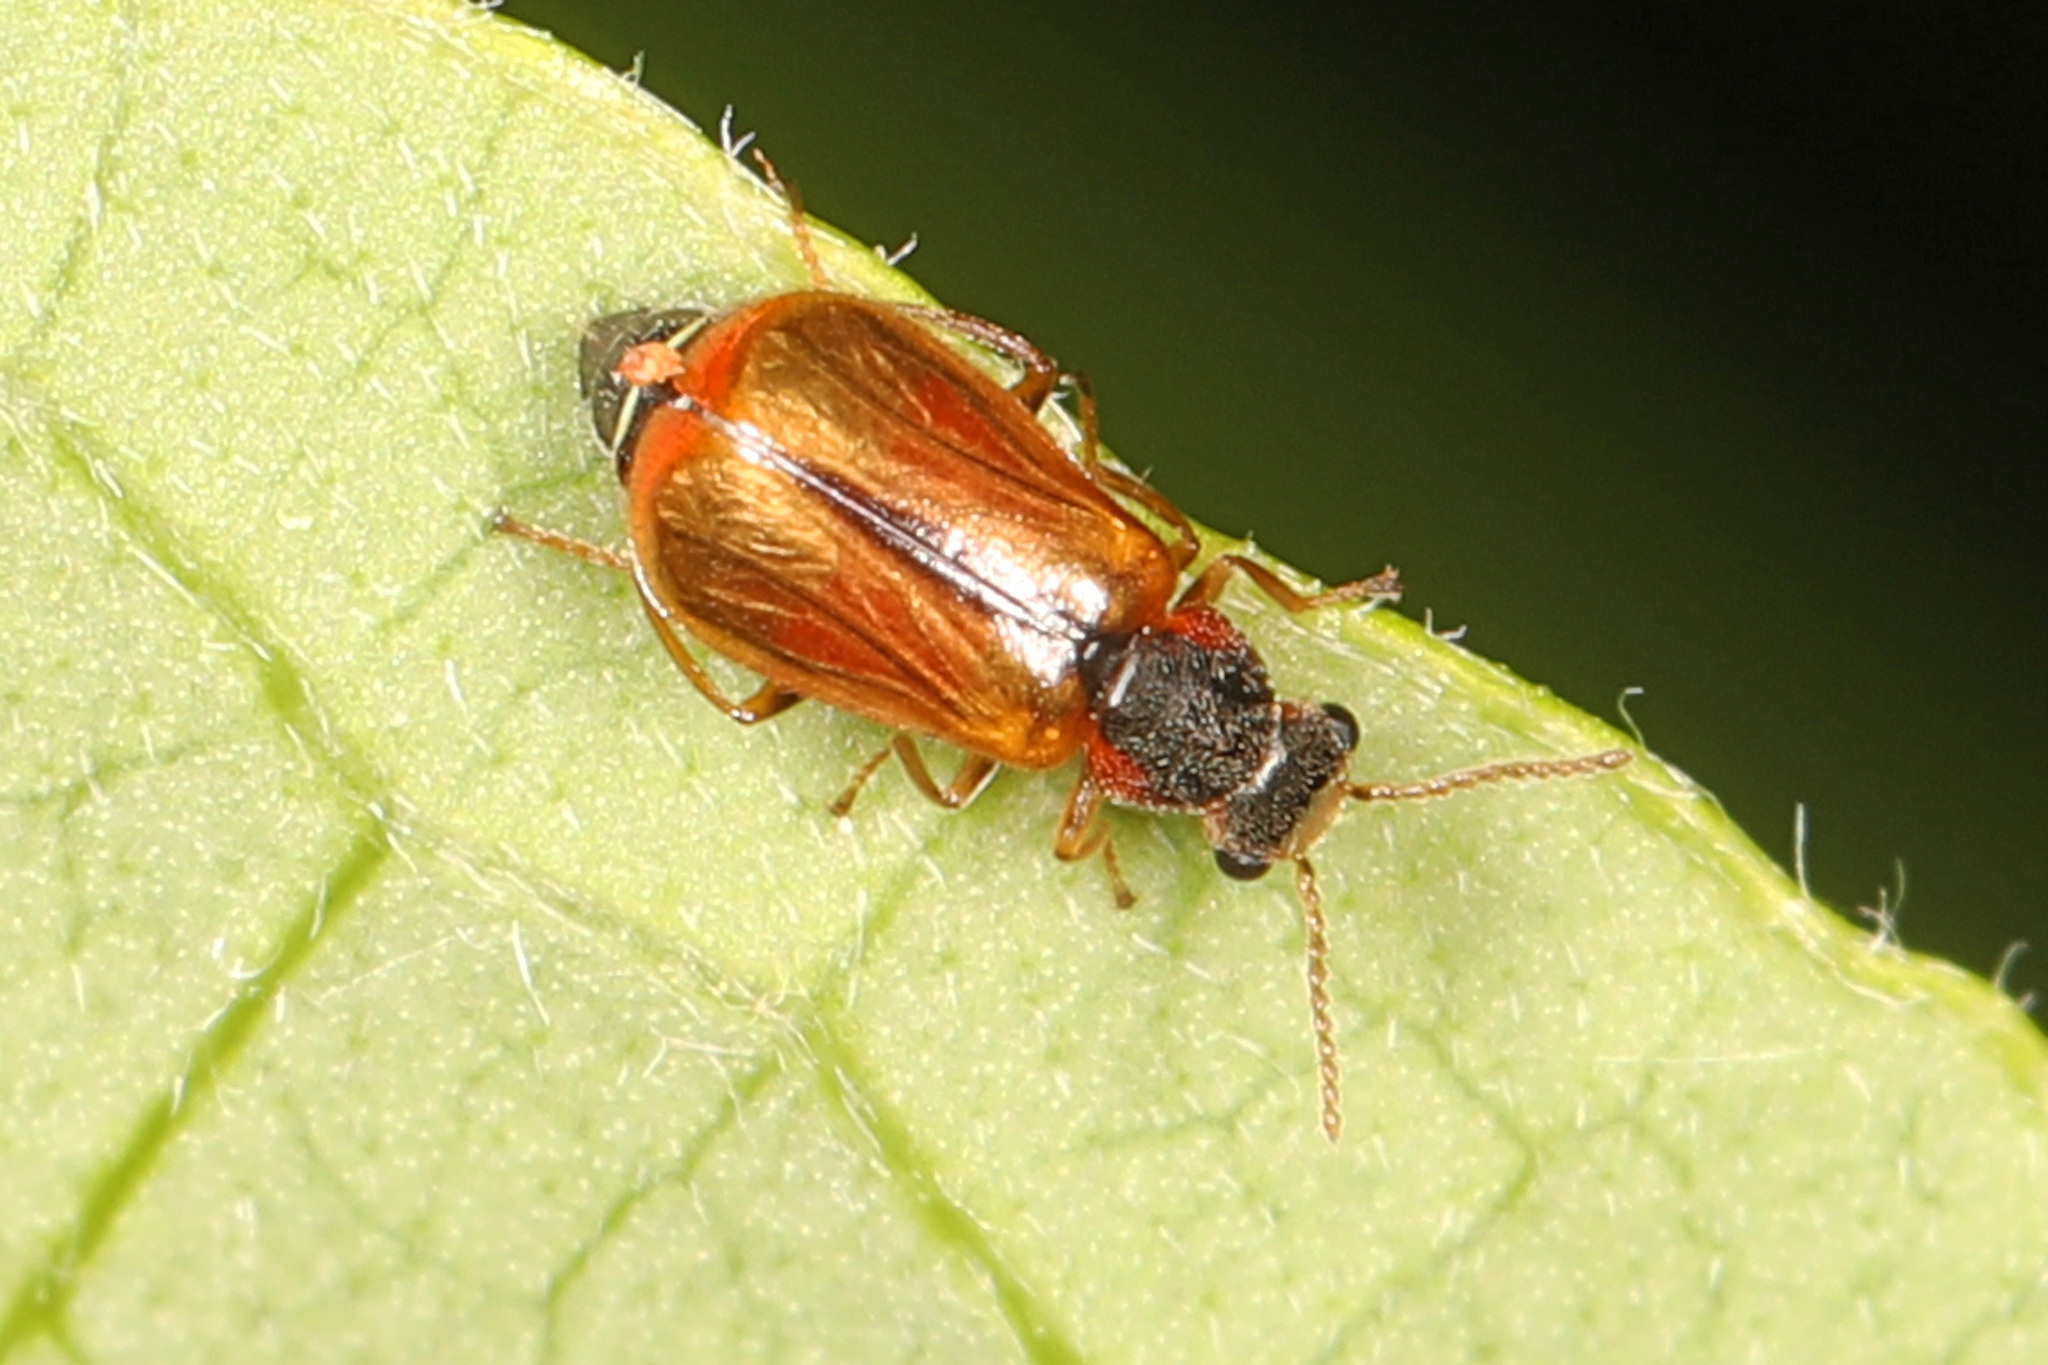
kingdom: Animalia
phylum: Arthropoda
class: Insecta
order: Coleoptera
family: Malachiidae
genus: Attalus
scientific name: Attalus
